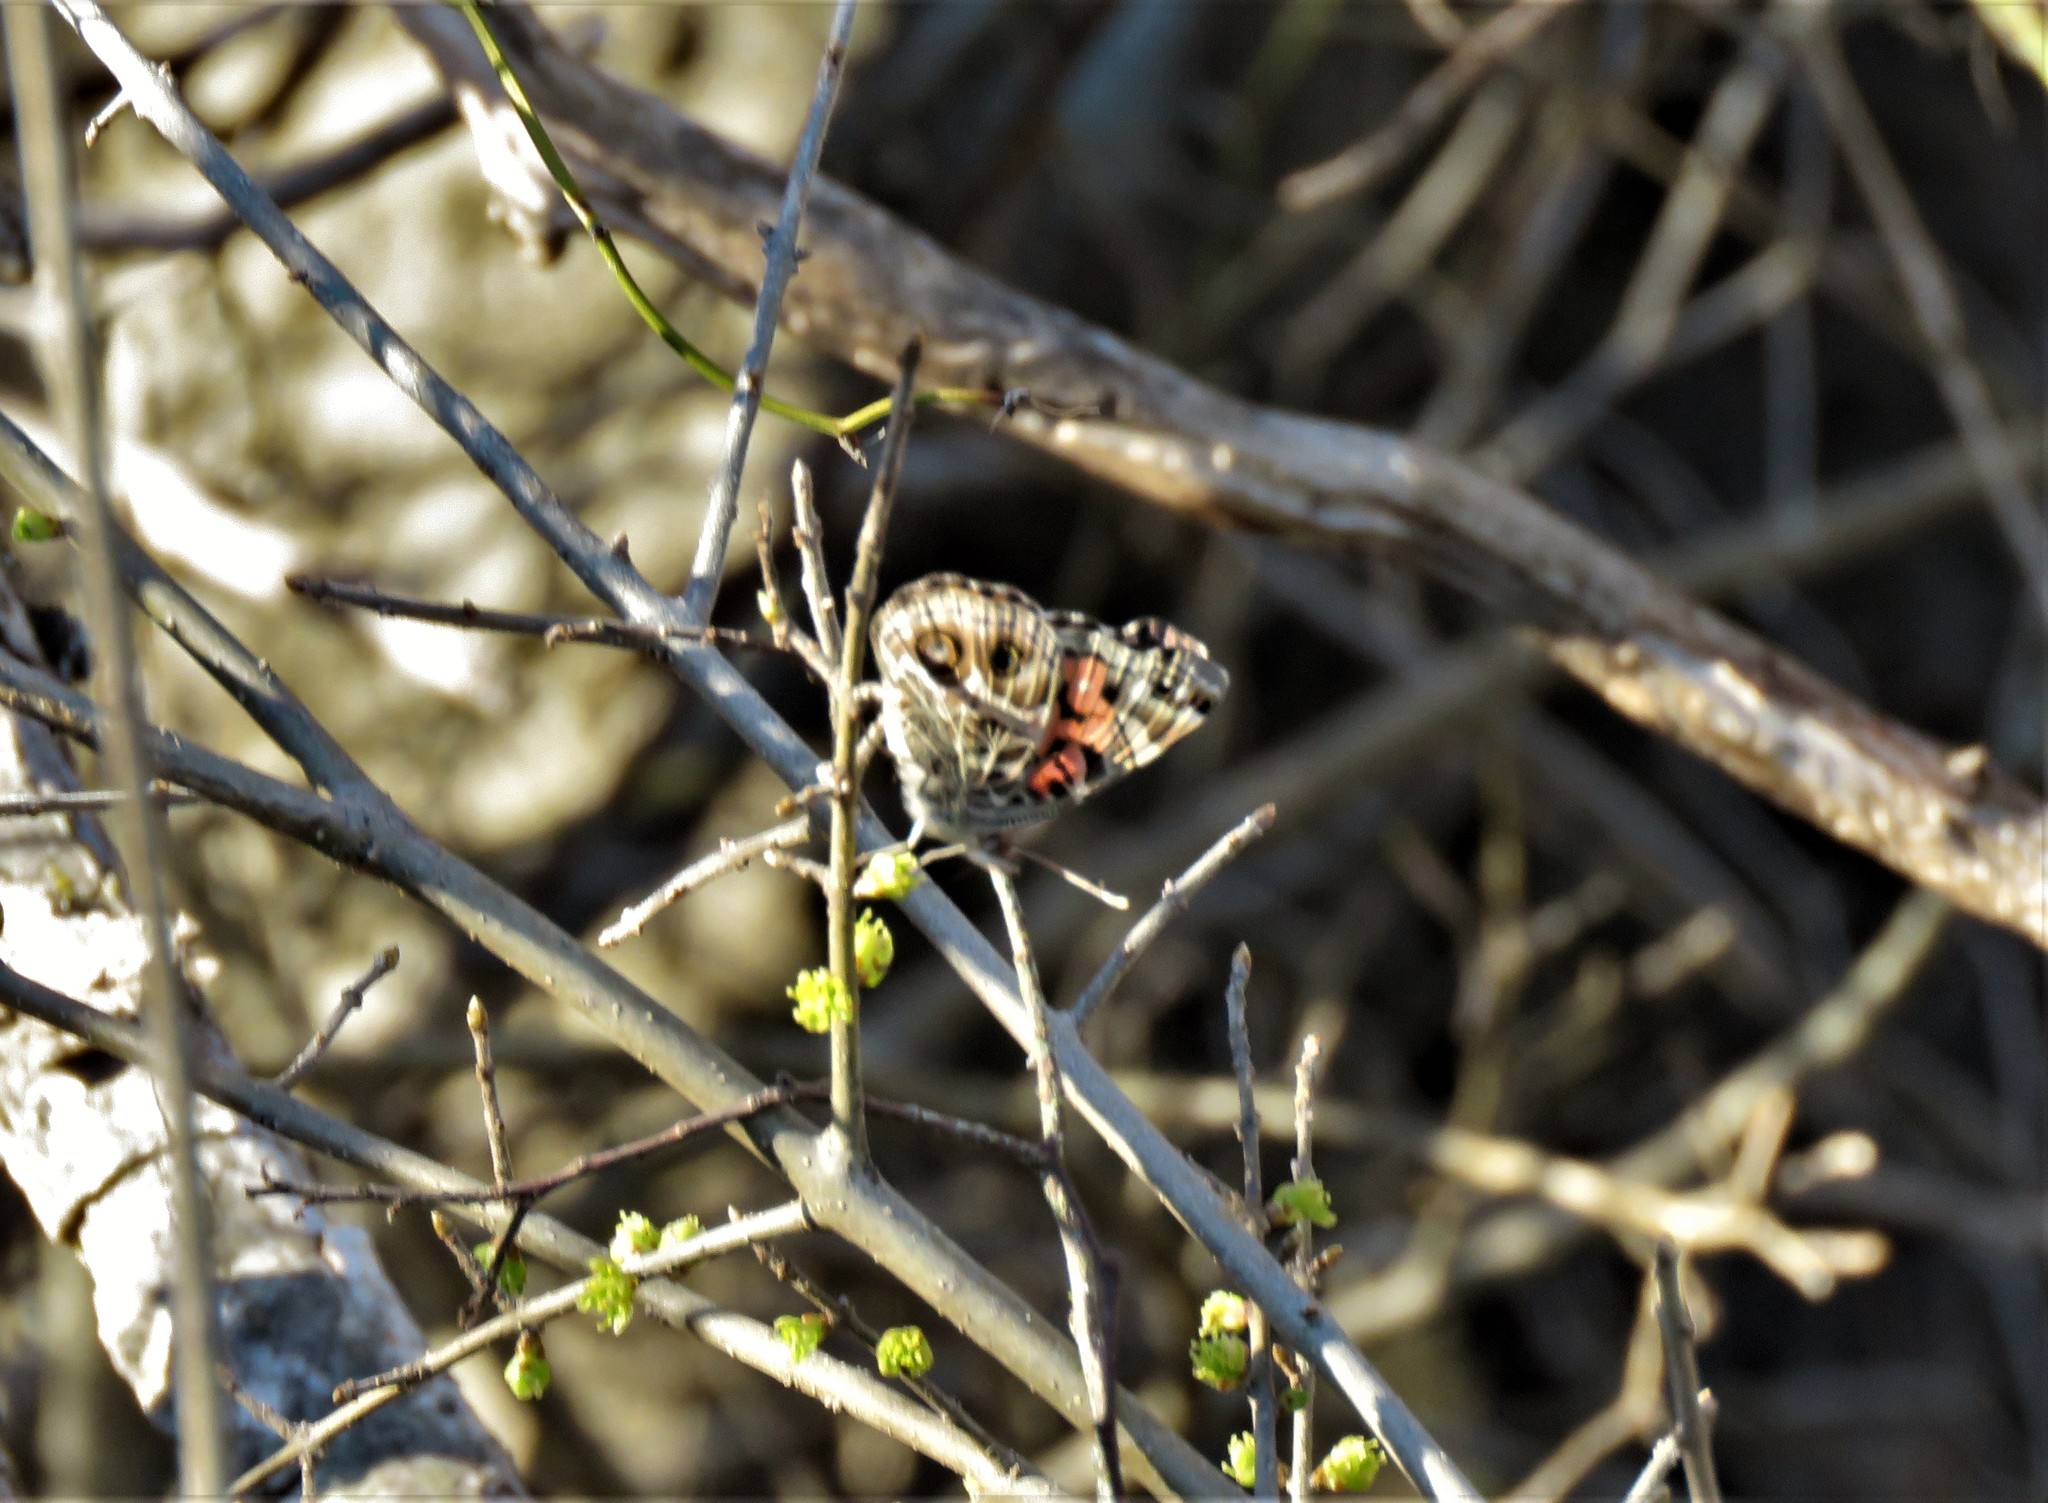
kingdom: Animalia
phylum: Arthropoda
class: Insecta
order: Lepidoptera
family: Nymphalidae
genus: Vanessa
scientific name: Vanessa virginiensis
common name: American lady
